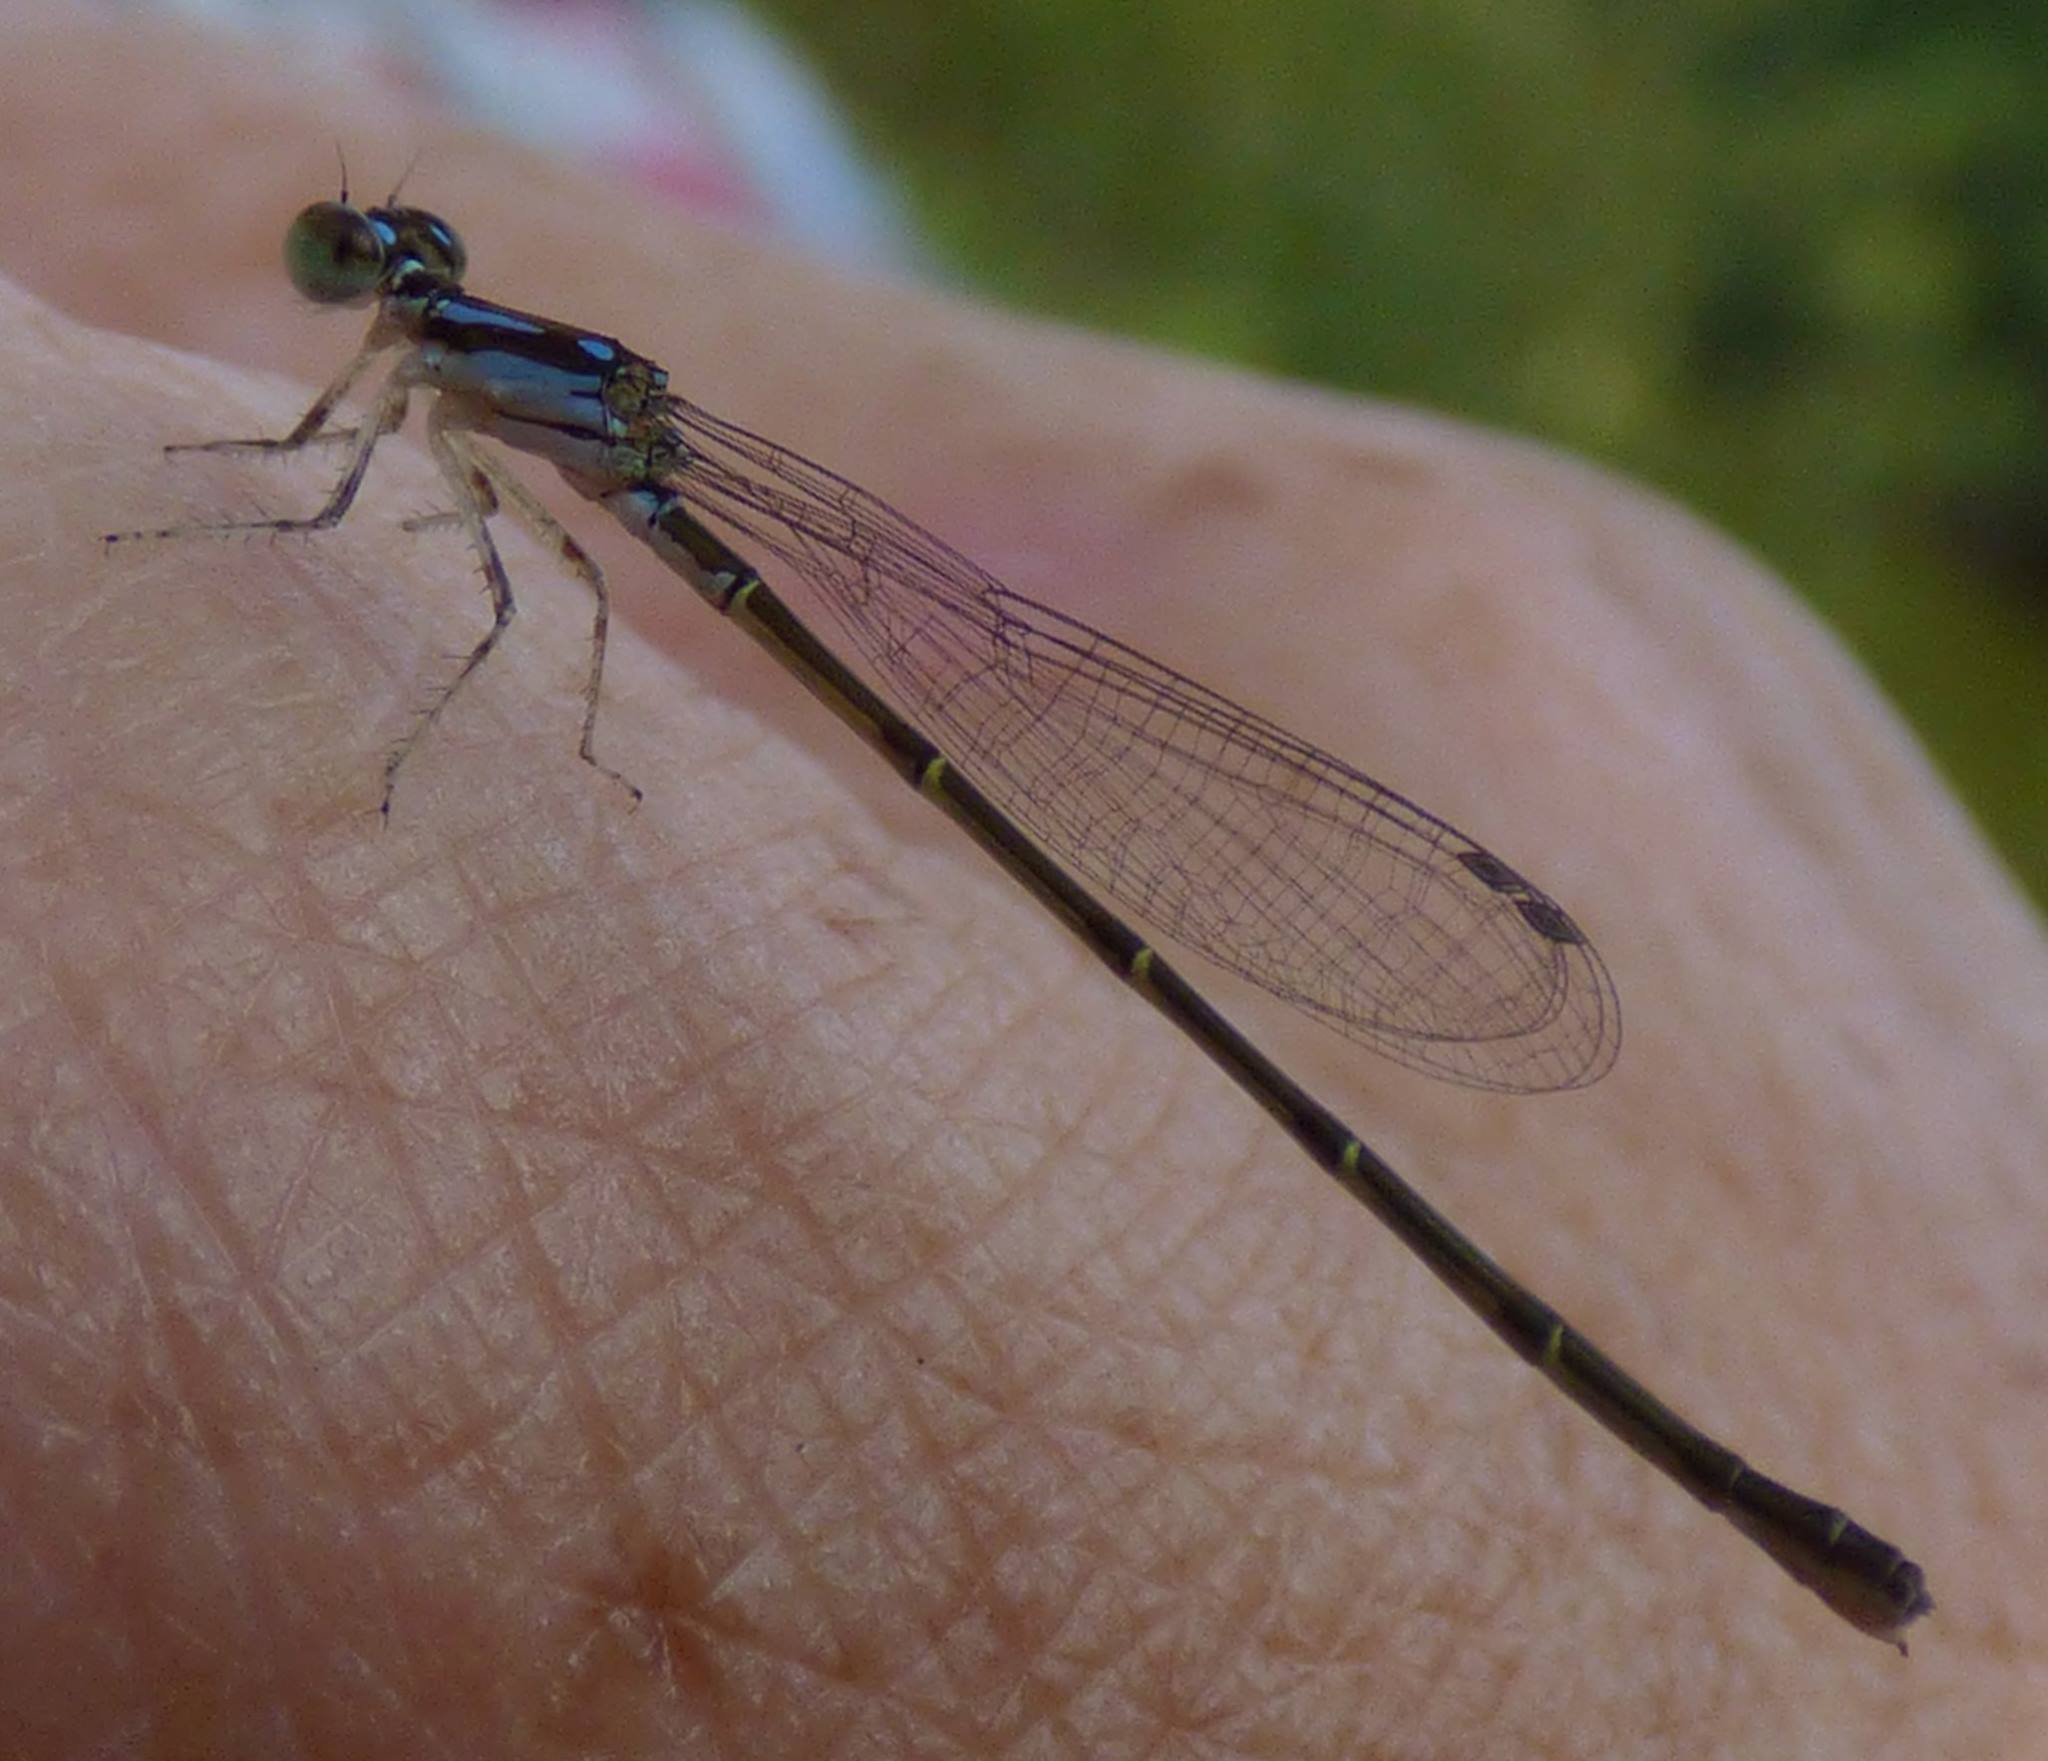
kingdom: Animalia
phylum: Arthropoda
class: Insecta
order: Odonata
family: Coenagrionidae
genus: Ischnura
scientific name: Ischnura posita
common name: Fragile forktail
